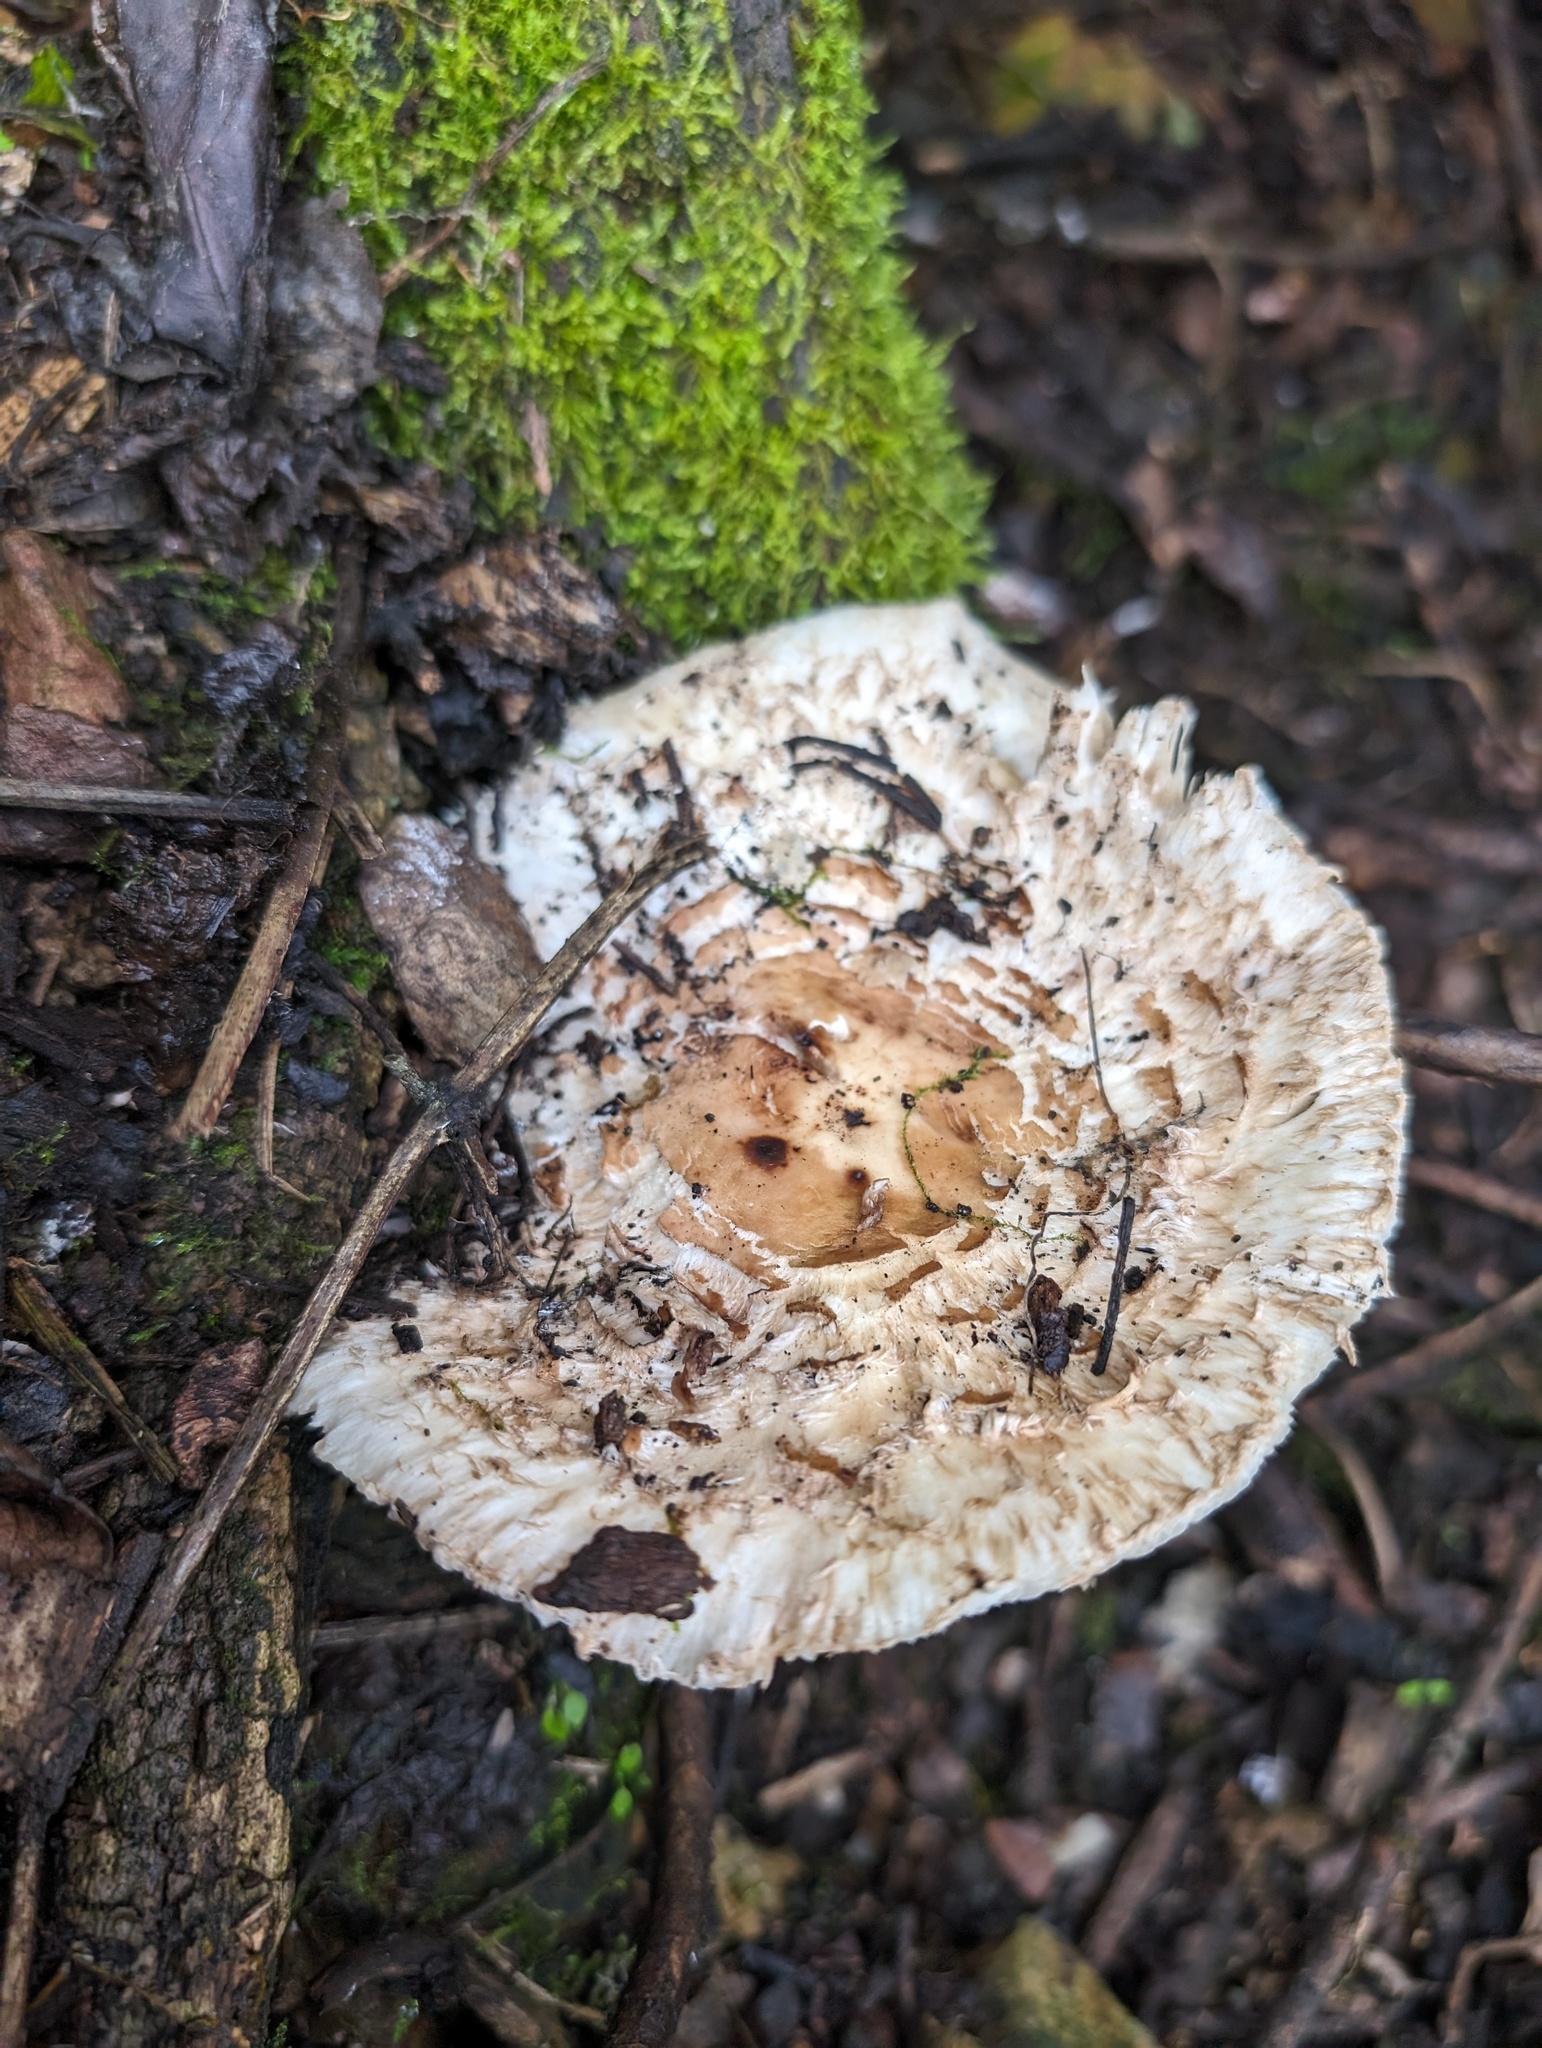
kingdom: Fungi
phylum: Basidiomycota
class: Agaricomycetes
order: Agaricales
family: Agaricaceae
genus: Chlorophyllum
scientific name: Chlorophyllum brunneum
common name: Brown parasol
